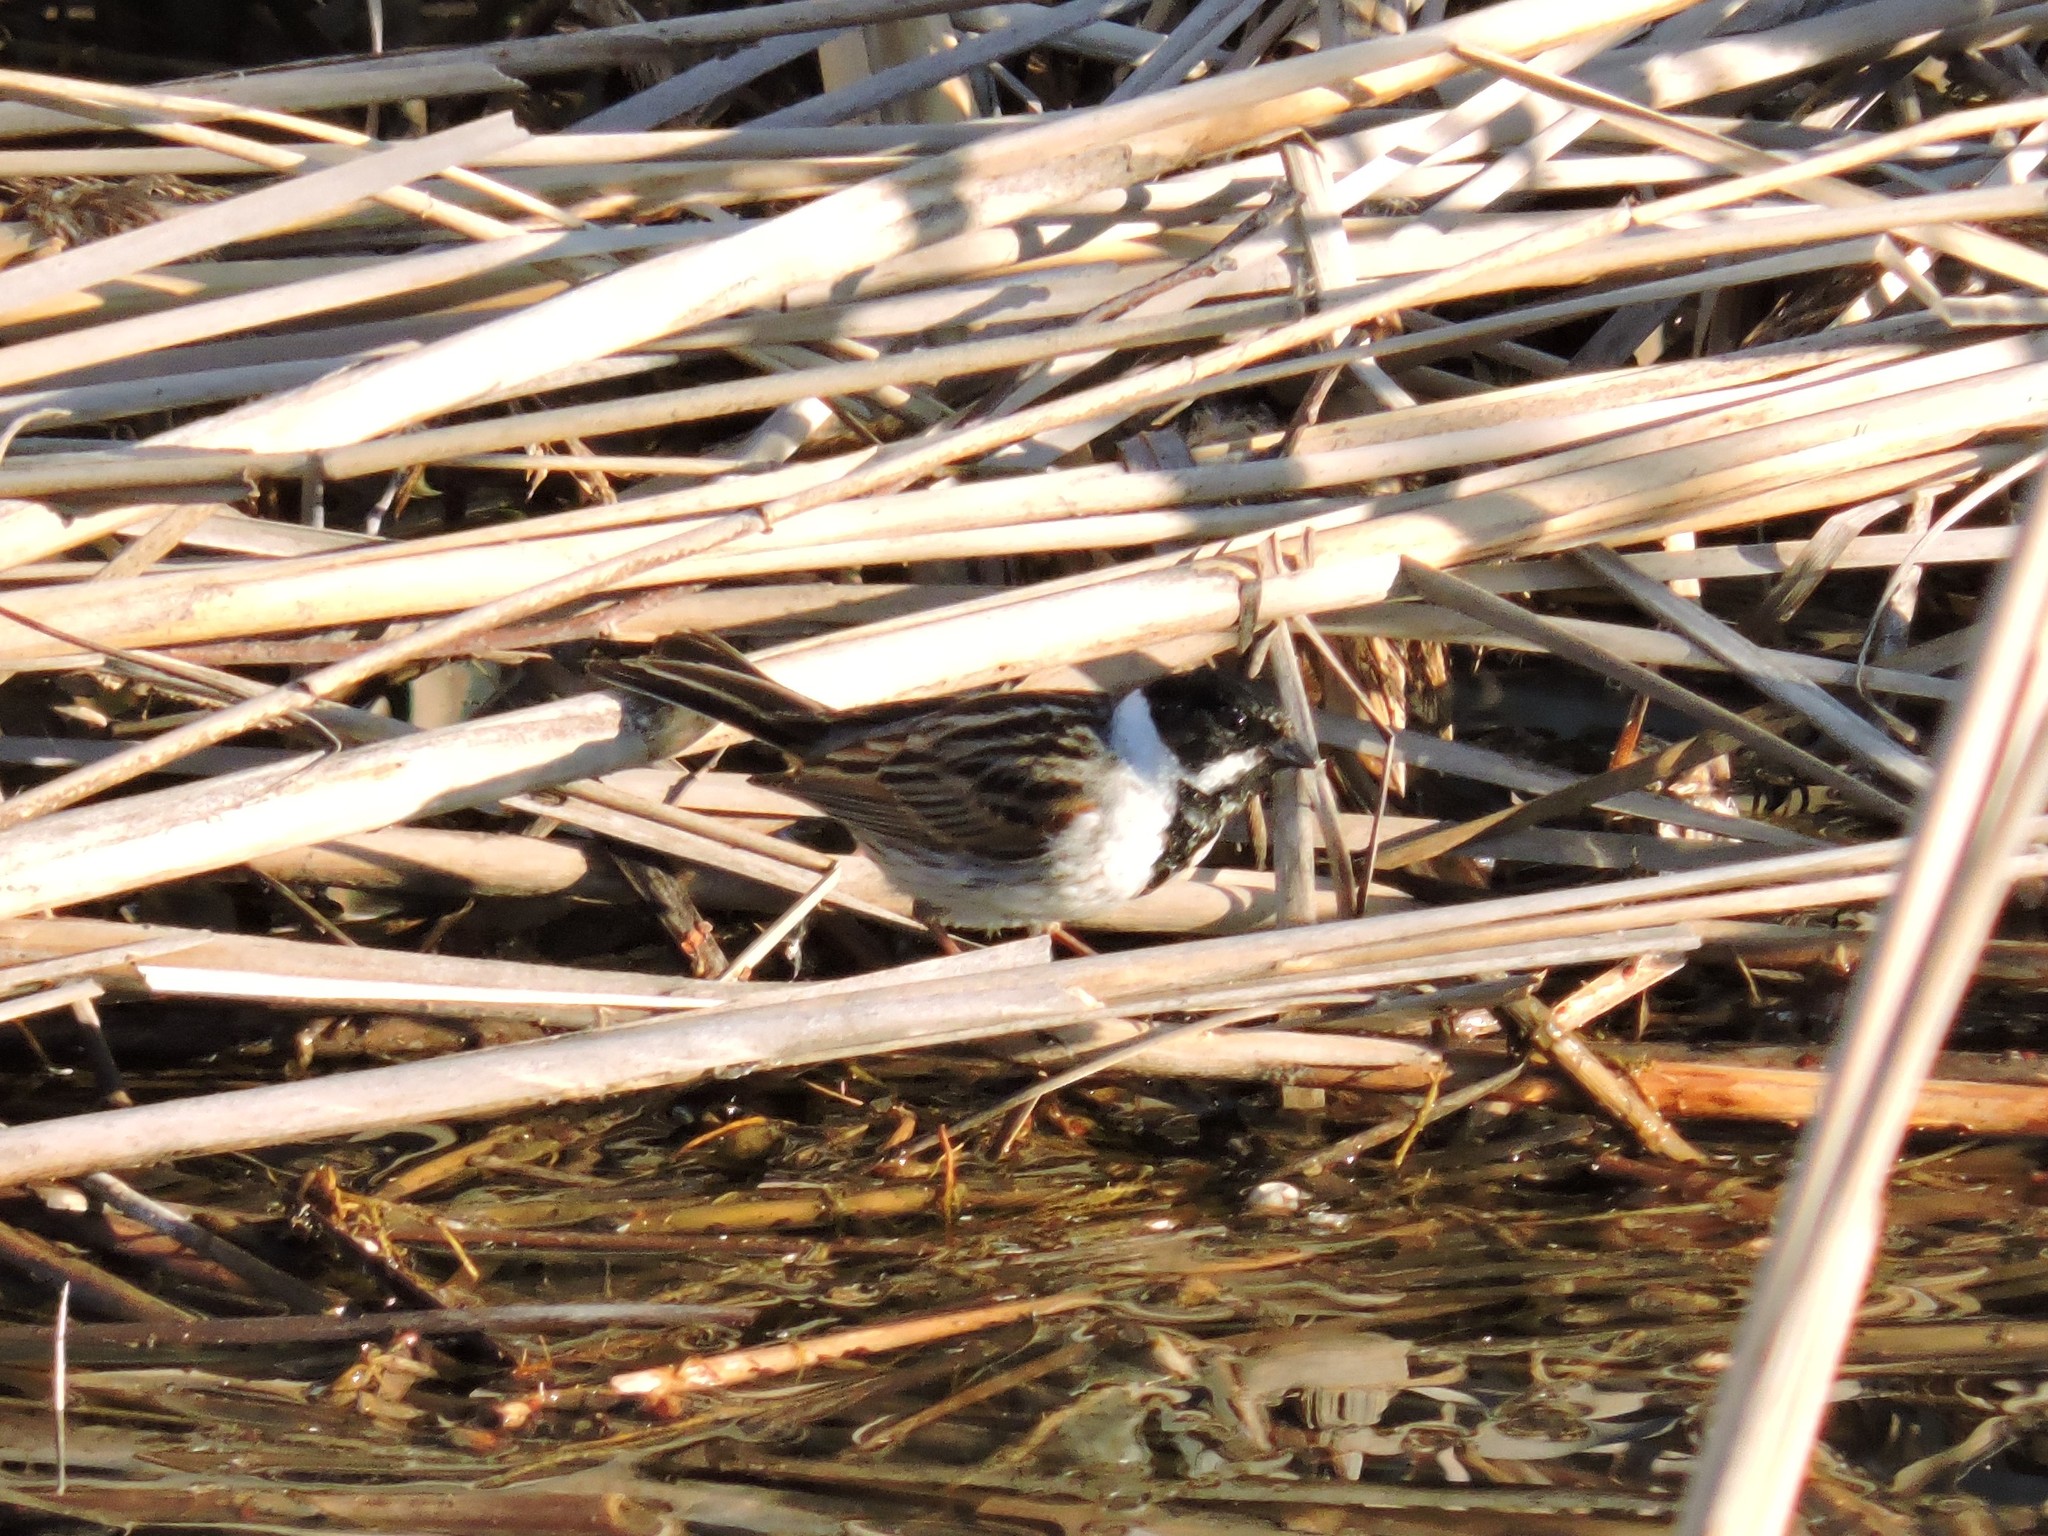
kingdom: Animalia
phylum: Chordata
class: Aves
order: Passeriformes
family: Emberizidae
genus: Emberiza
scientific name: Emberiza schoeniclus
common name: Reed bunting
